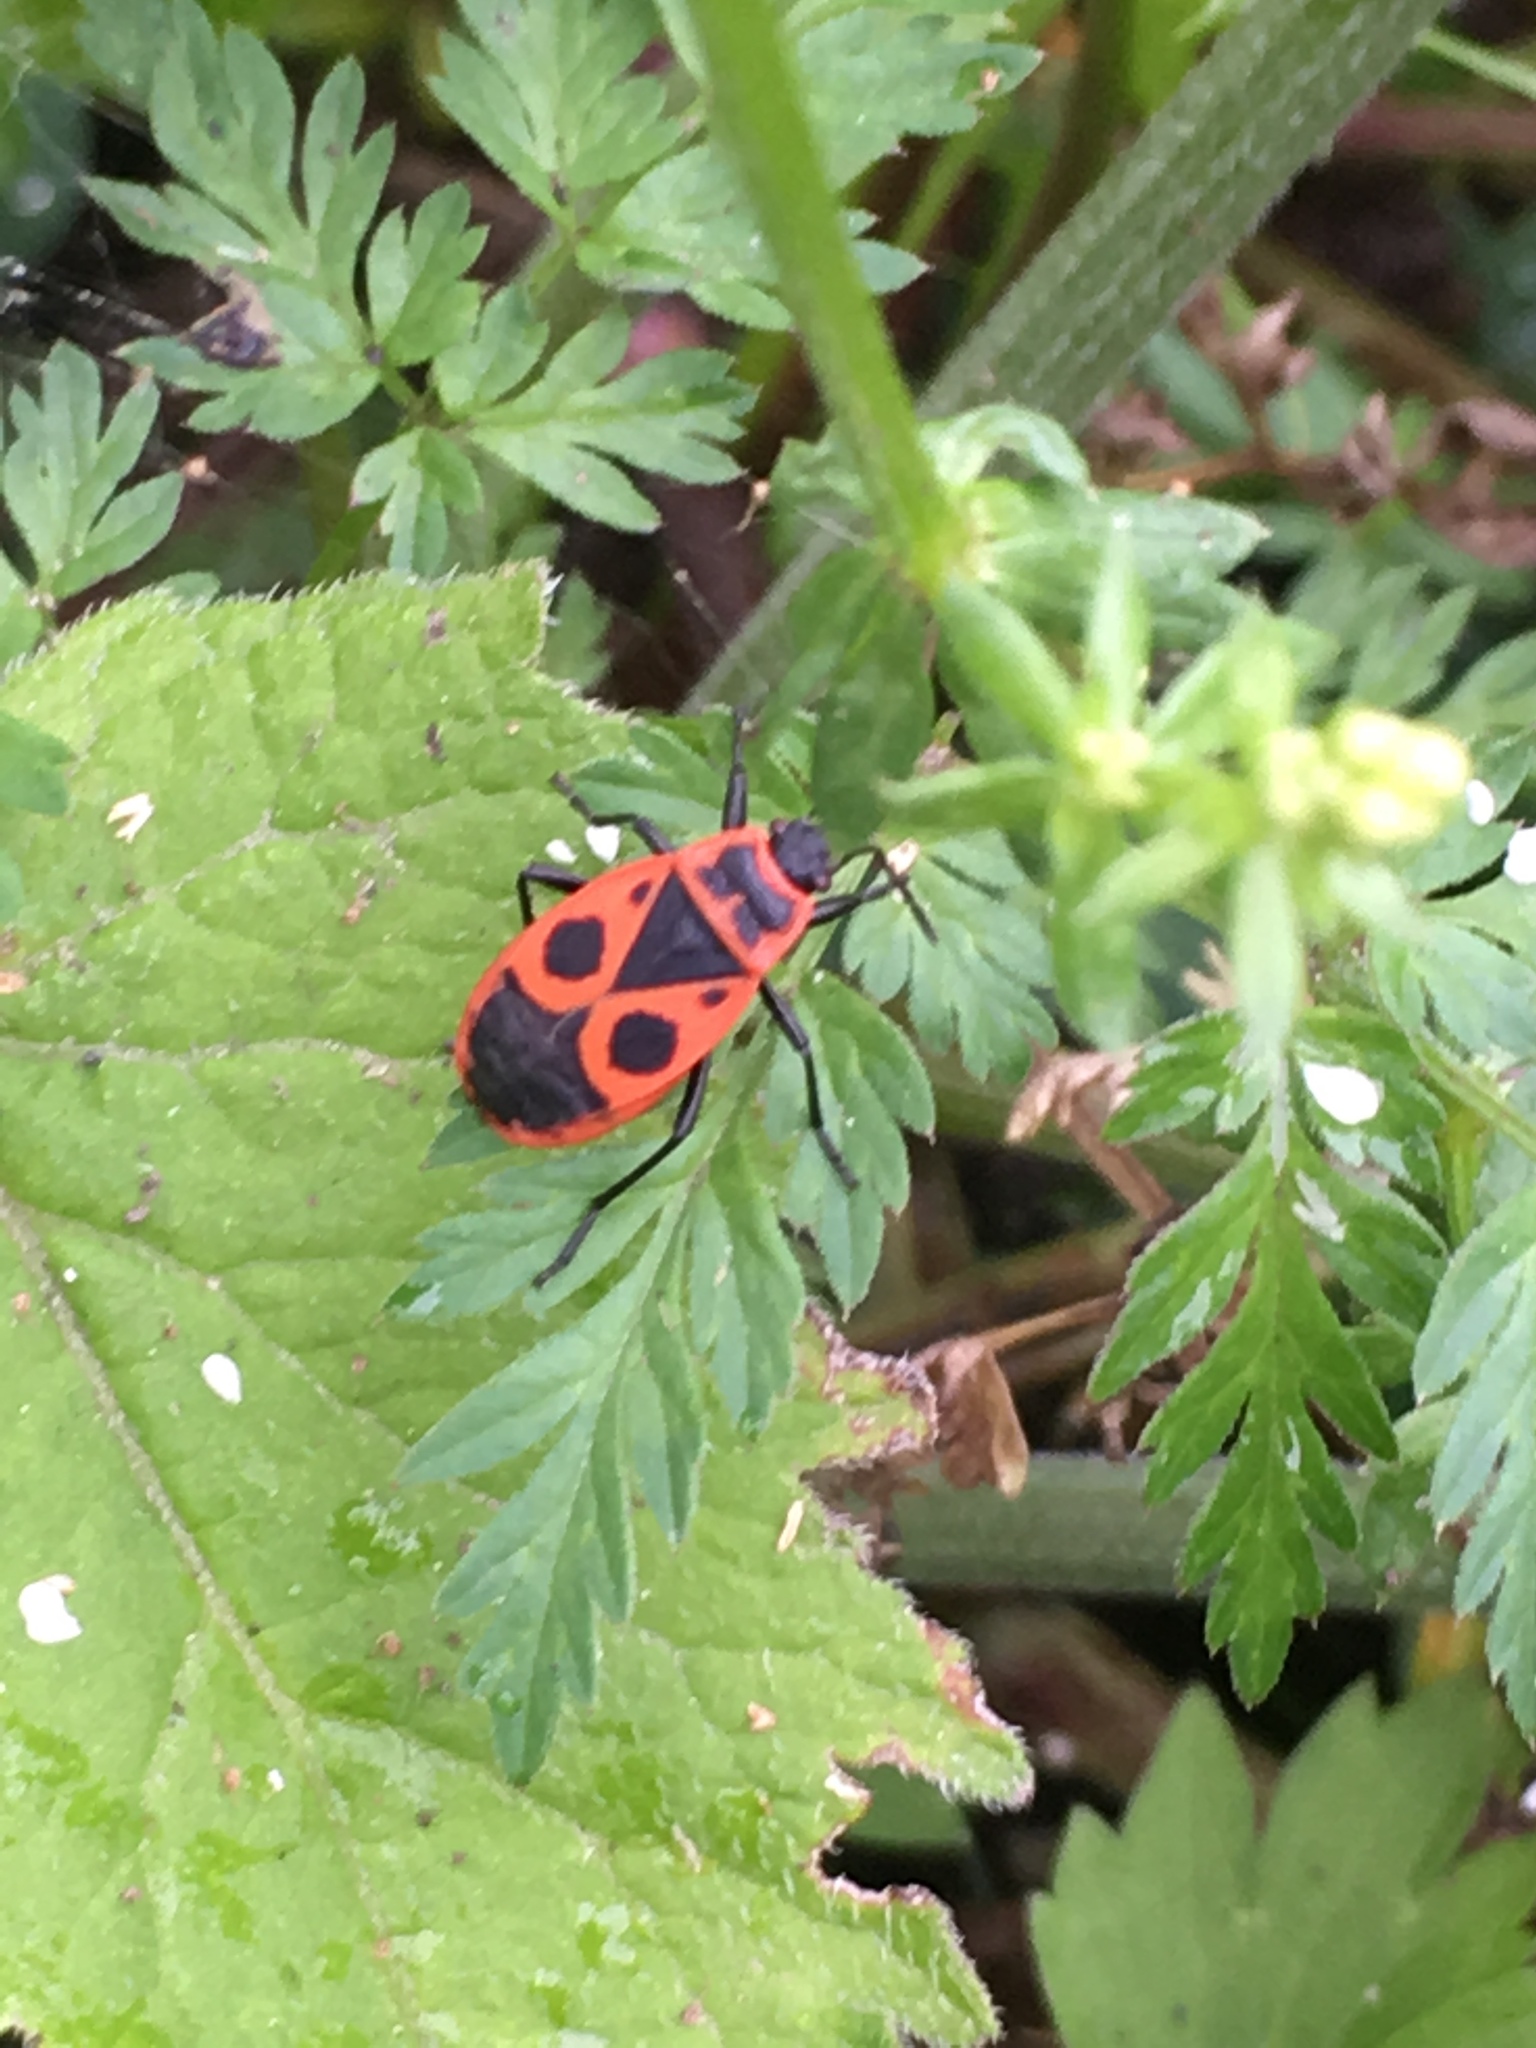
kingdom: Animalia
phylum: Arthropoda
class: Insecta
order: Hemiptera
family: Pyrrhocoridae
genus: Pyrrhocoris
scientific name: Pyrrhocoris apterus
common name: Firebug
